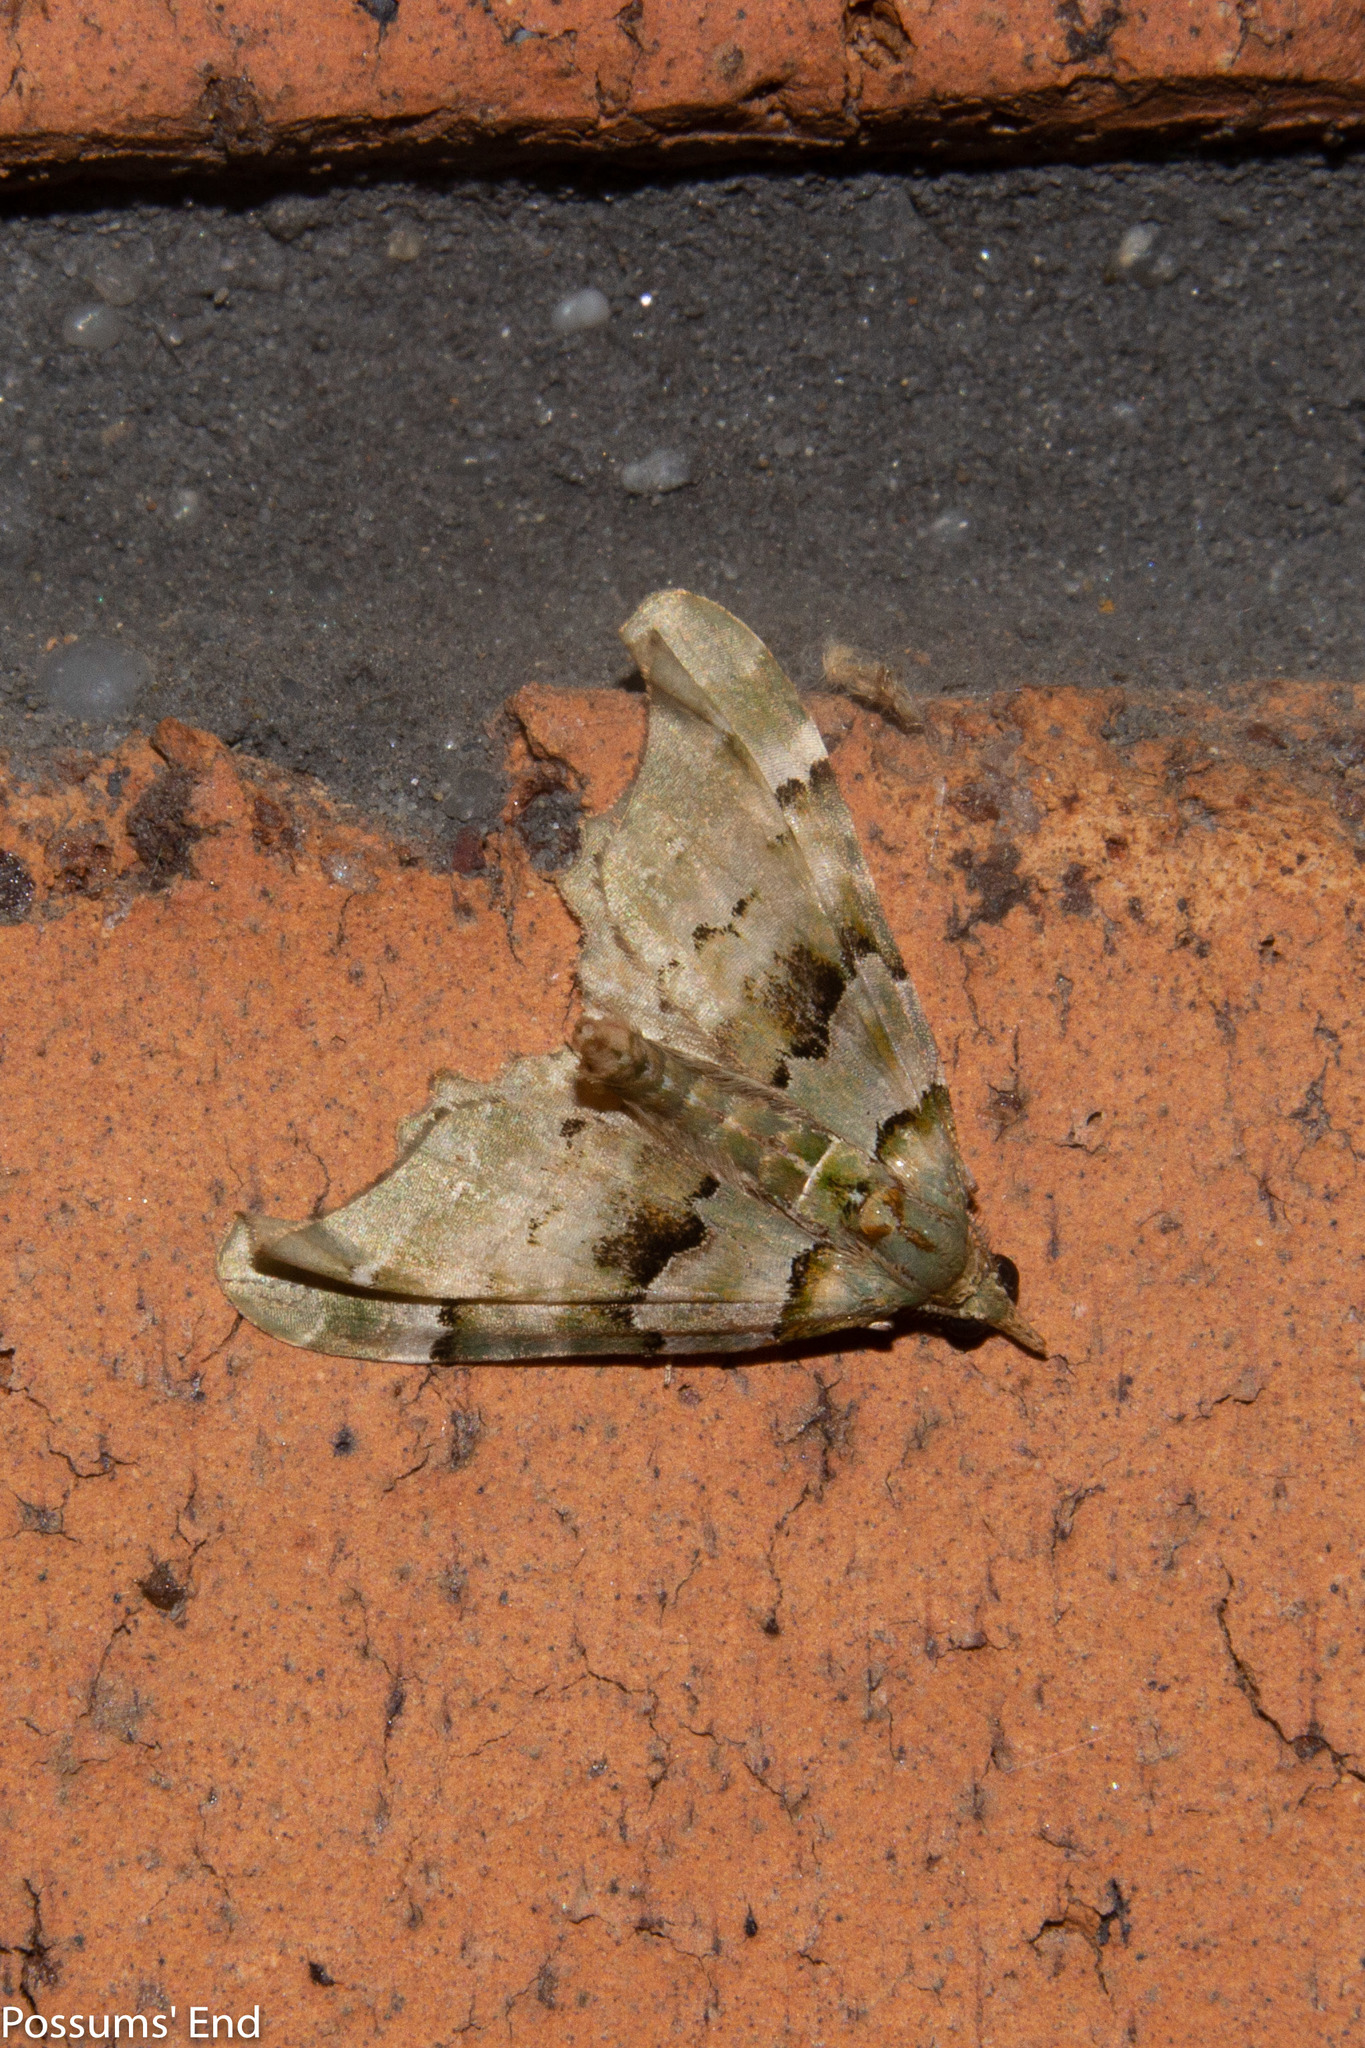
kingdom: Animalia
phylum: Arthropoda
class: Insecta
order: Lepidoptera
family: Geometridae
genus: Elvia
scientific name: Elvia glaucata
